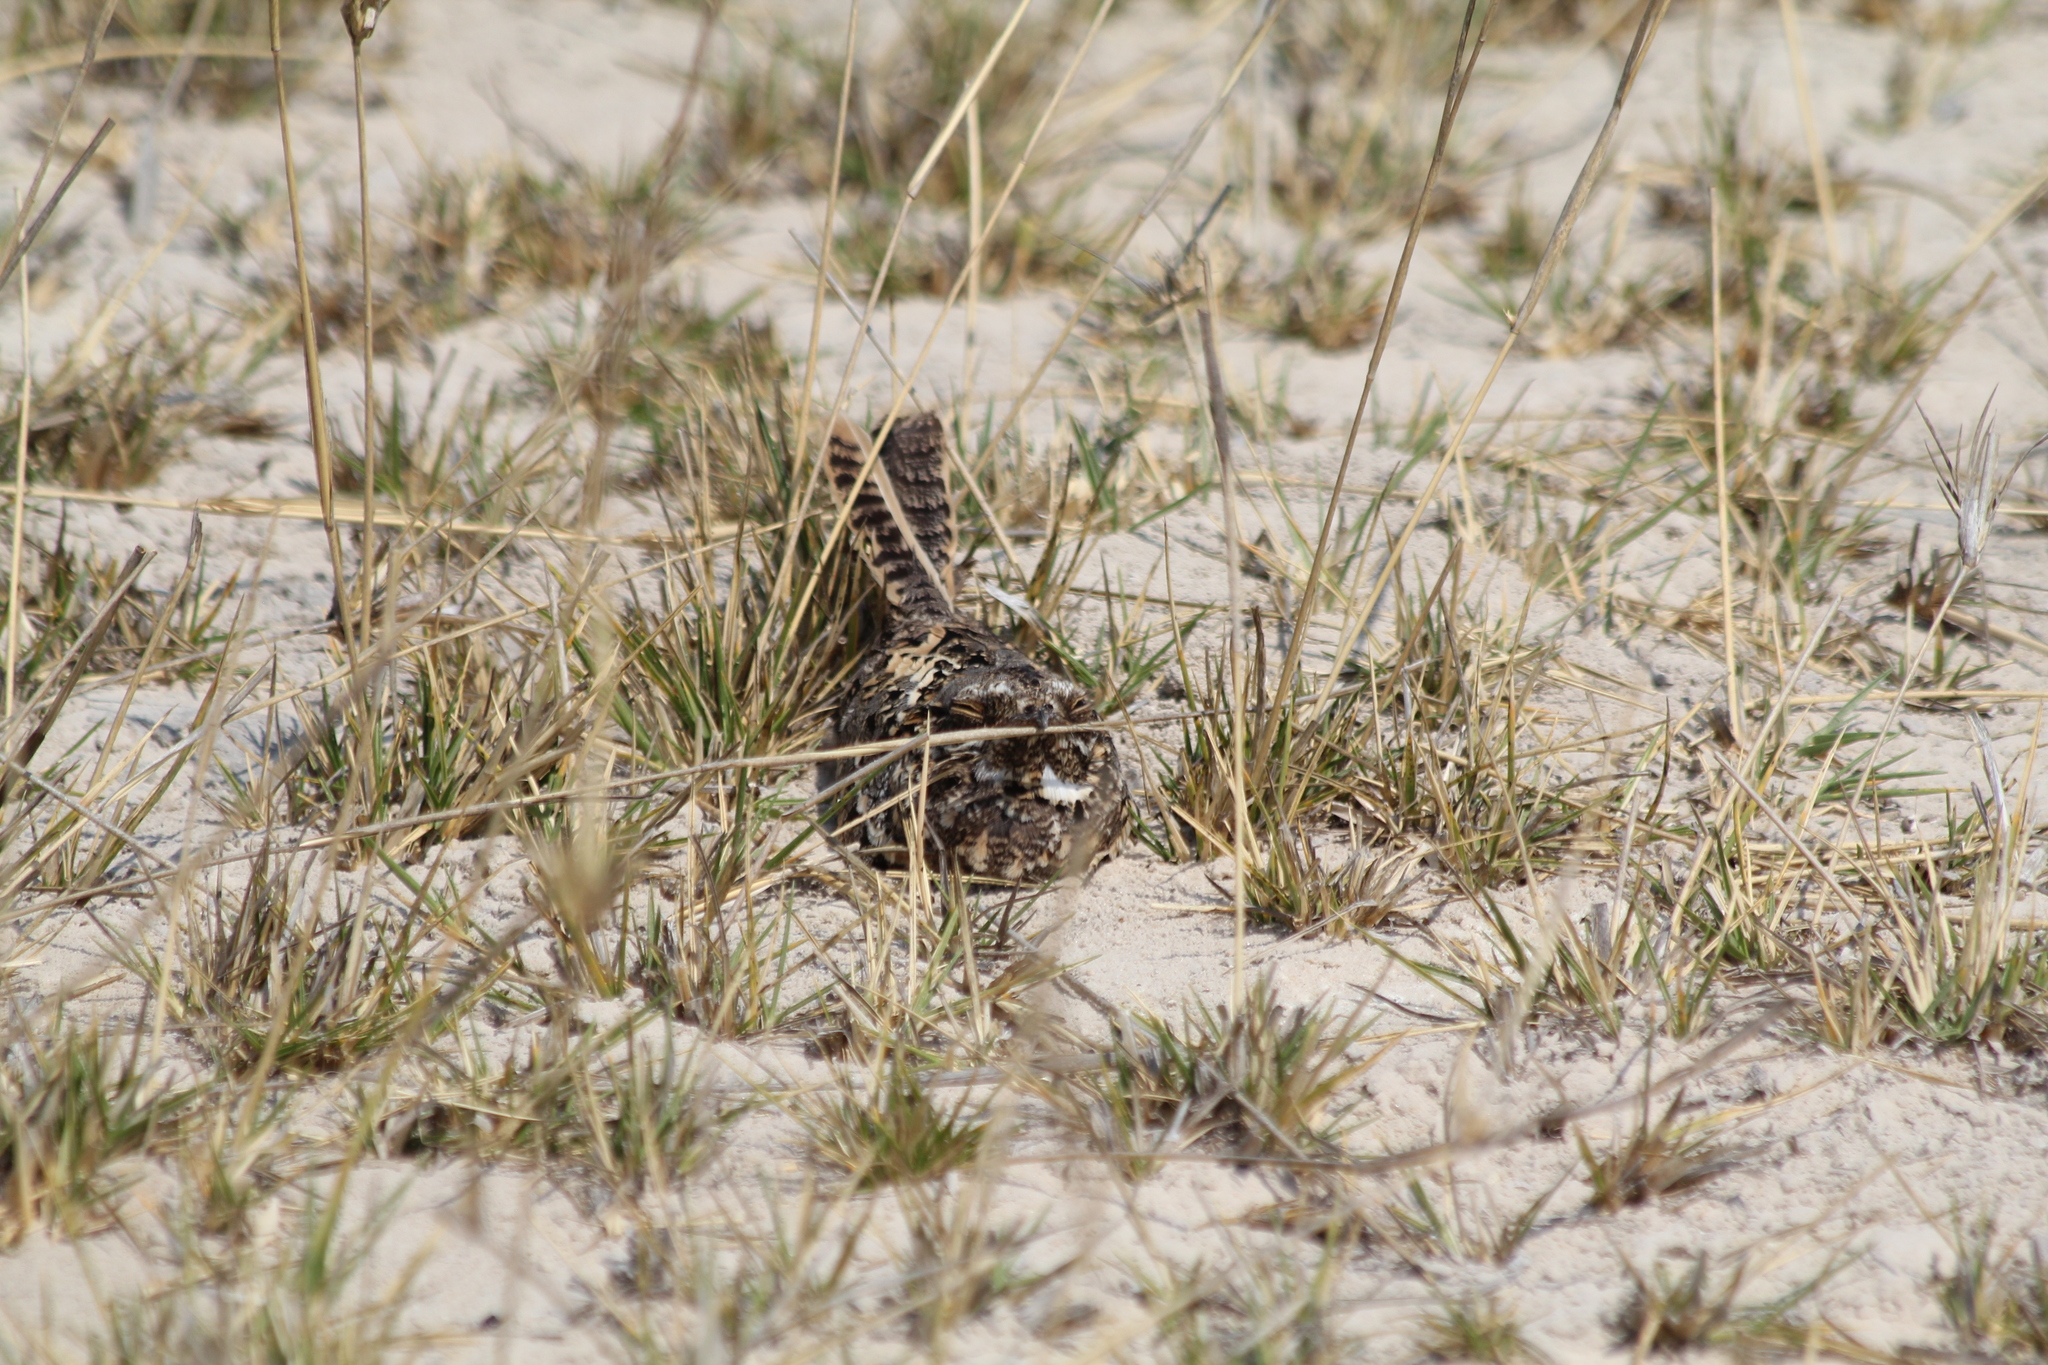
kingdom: Animalia
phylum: Chordata
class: Aves
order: Caprimulgiformes
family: Caprimulgidae
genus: Caprimulgus
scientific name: Caprimulgus fossii
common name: Square-tailed nightjar
